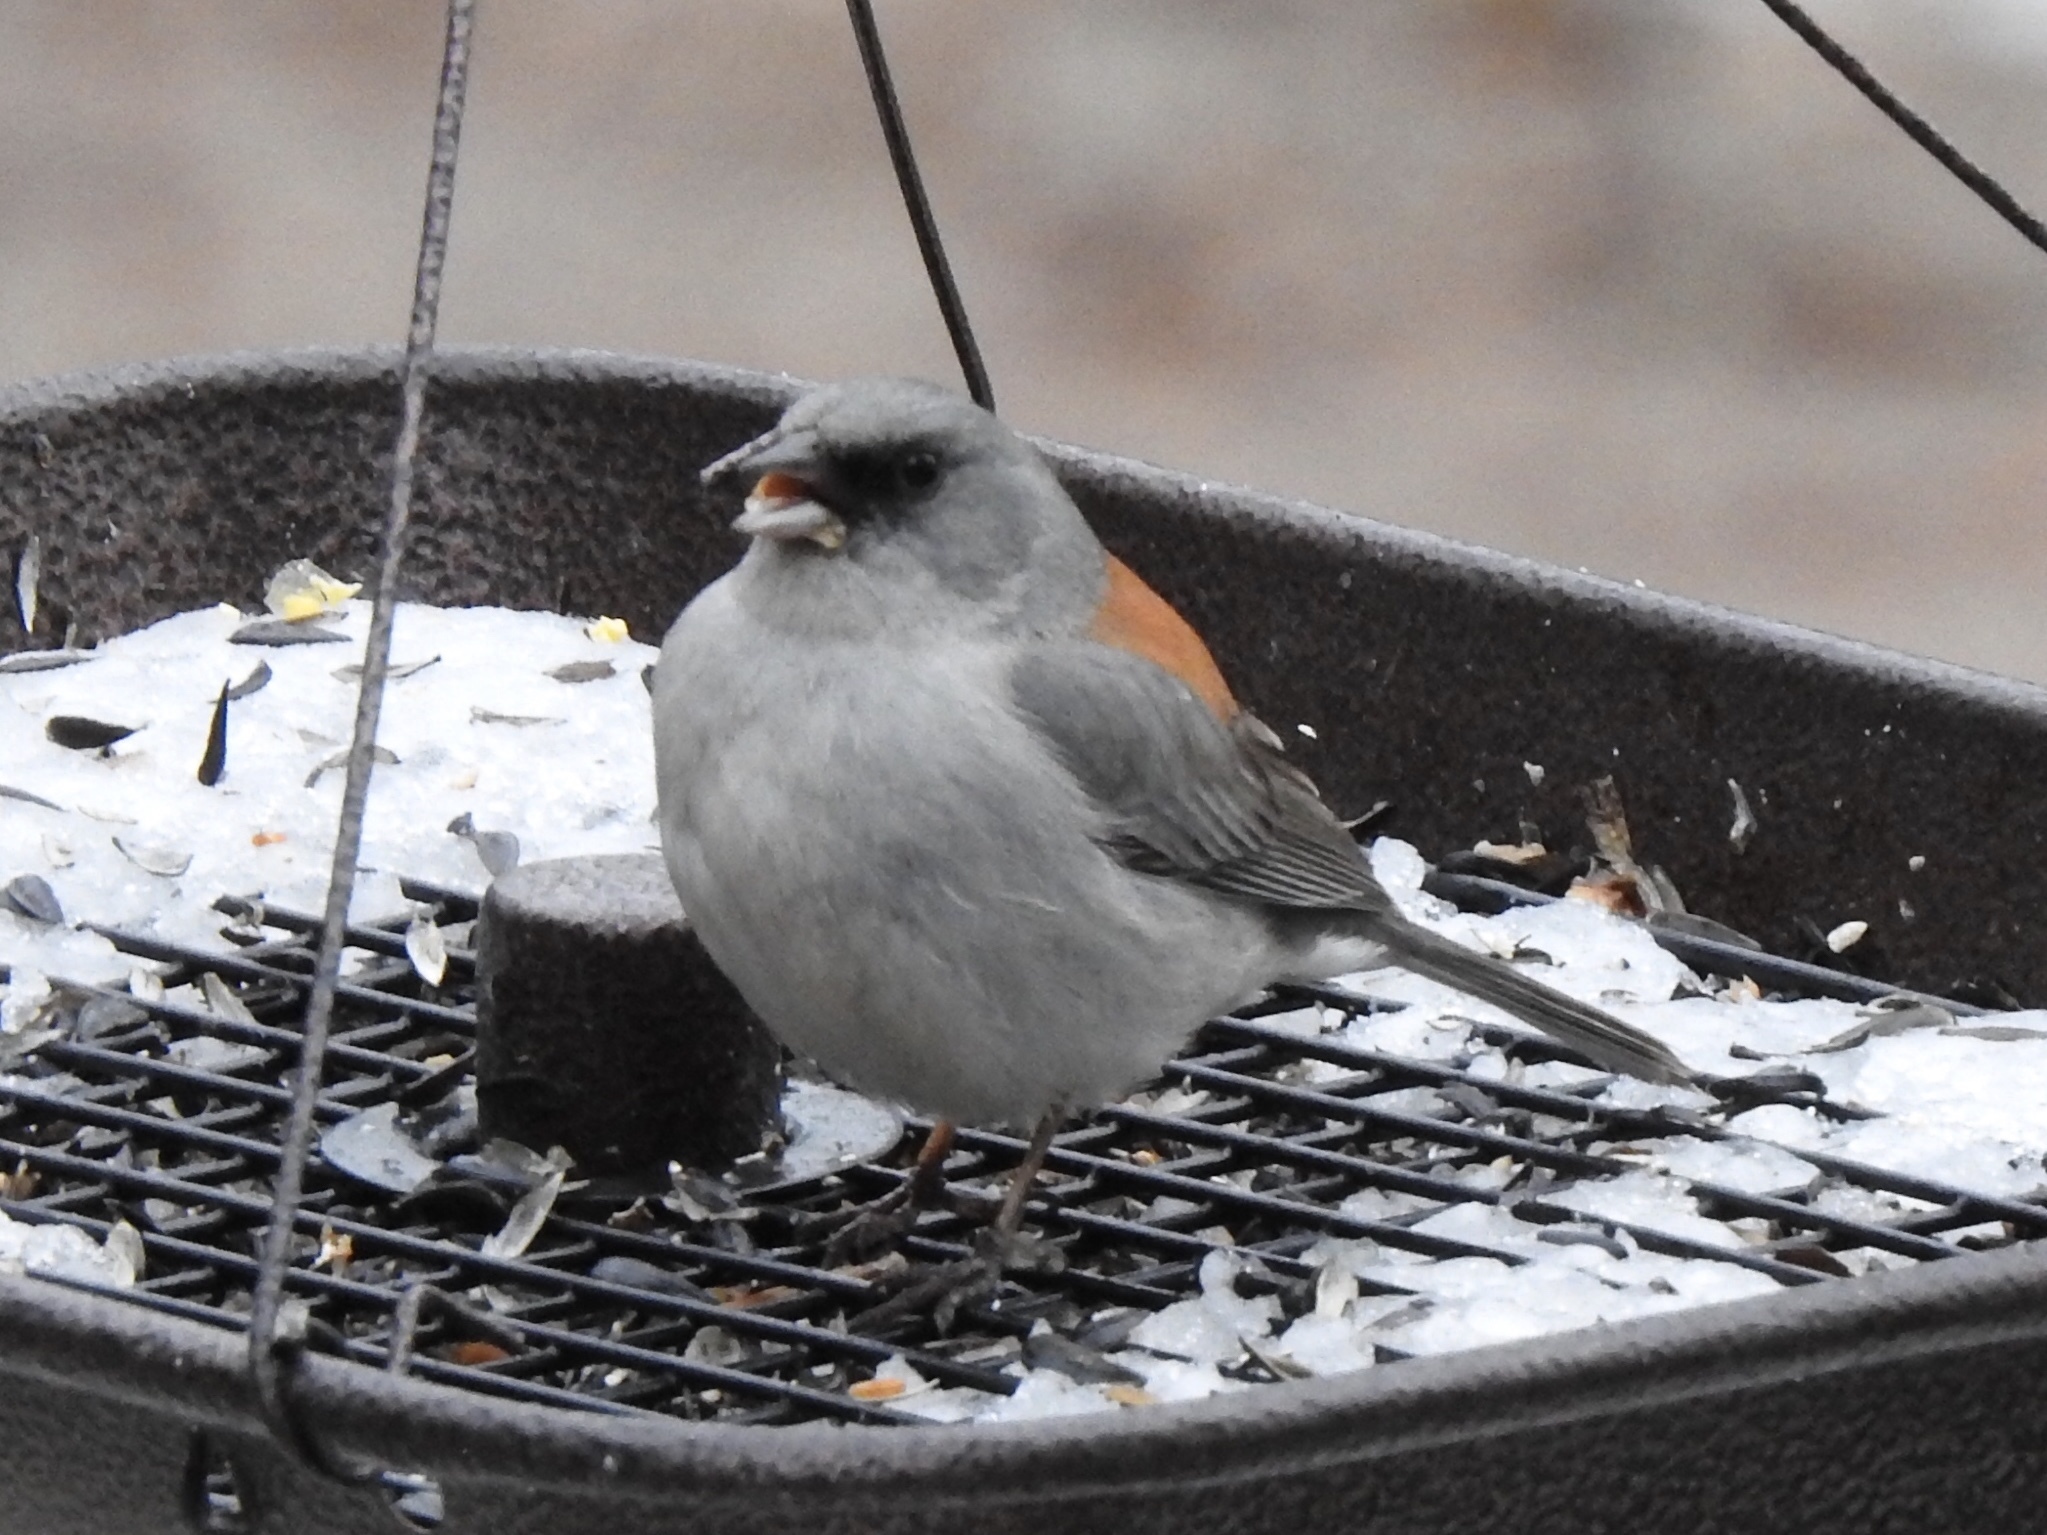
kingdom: Animalia
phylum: Chordata
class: Aves
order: Passeriformes
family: Passerellidae
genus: Junco
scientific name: Junco hyemalis
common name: Dark-eyed junco
